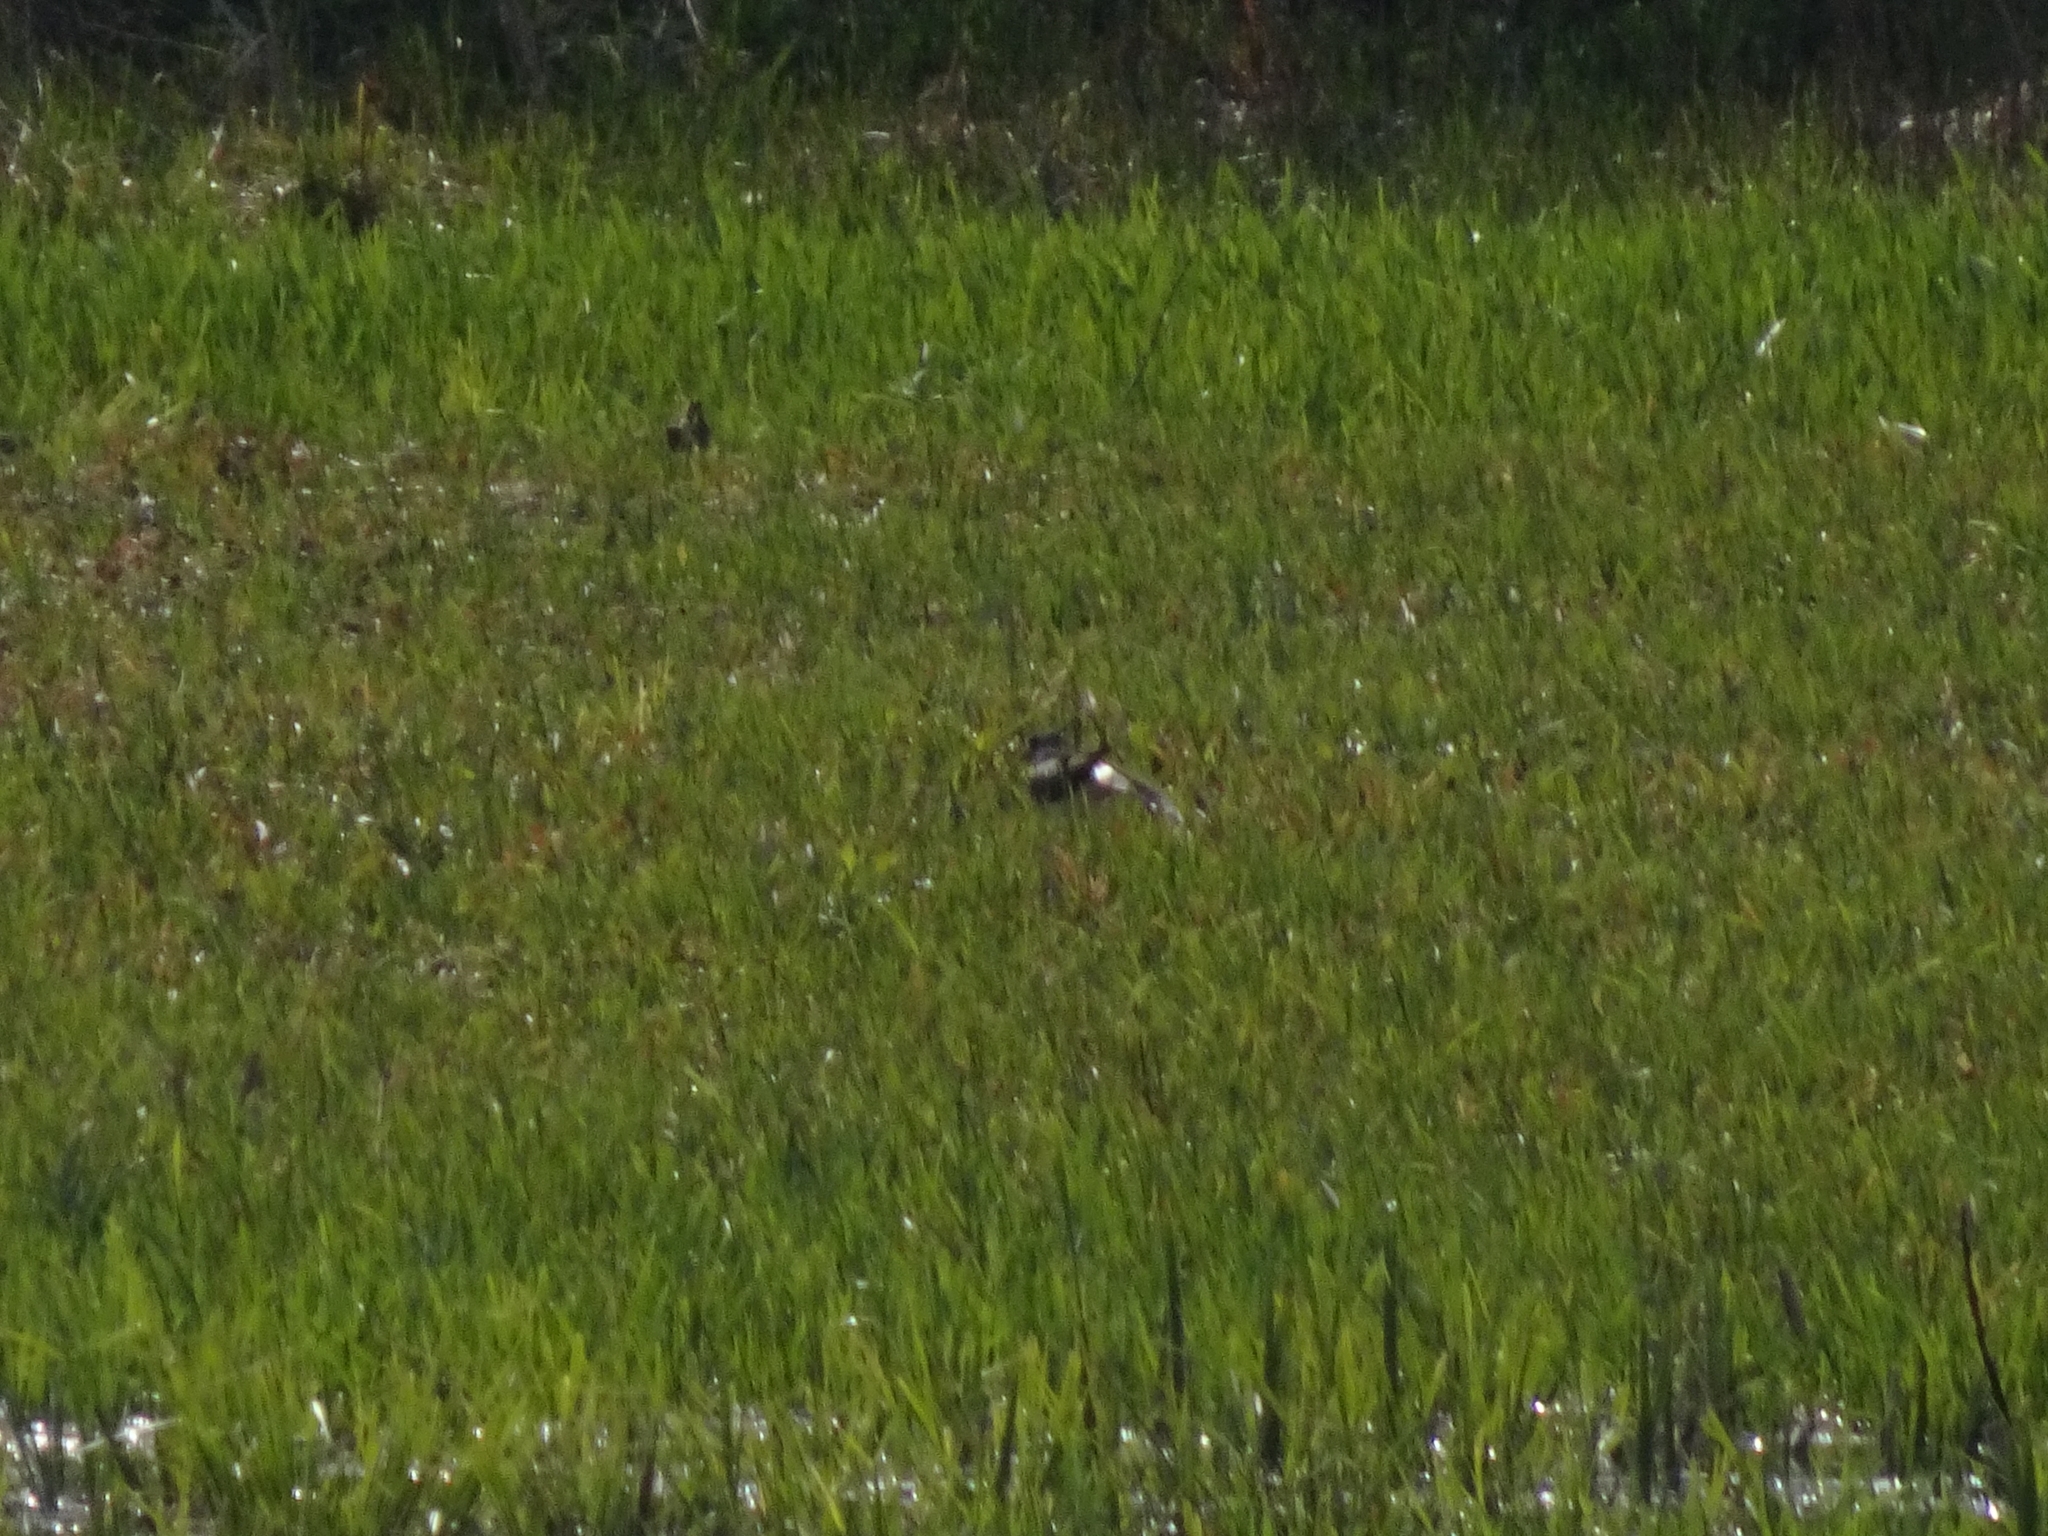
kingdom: Animalia
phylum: Chordata
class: Aves
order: Charadriiformes
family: Charadriidae
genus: Vanellus
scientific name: Vanellus vanellus
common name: Northern lapwing
